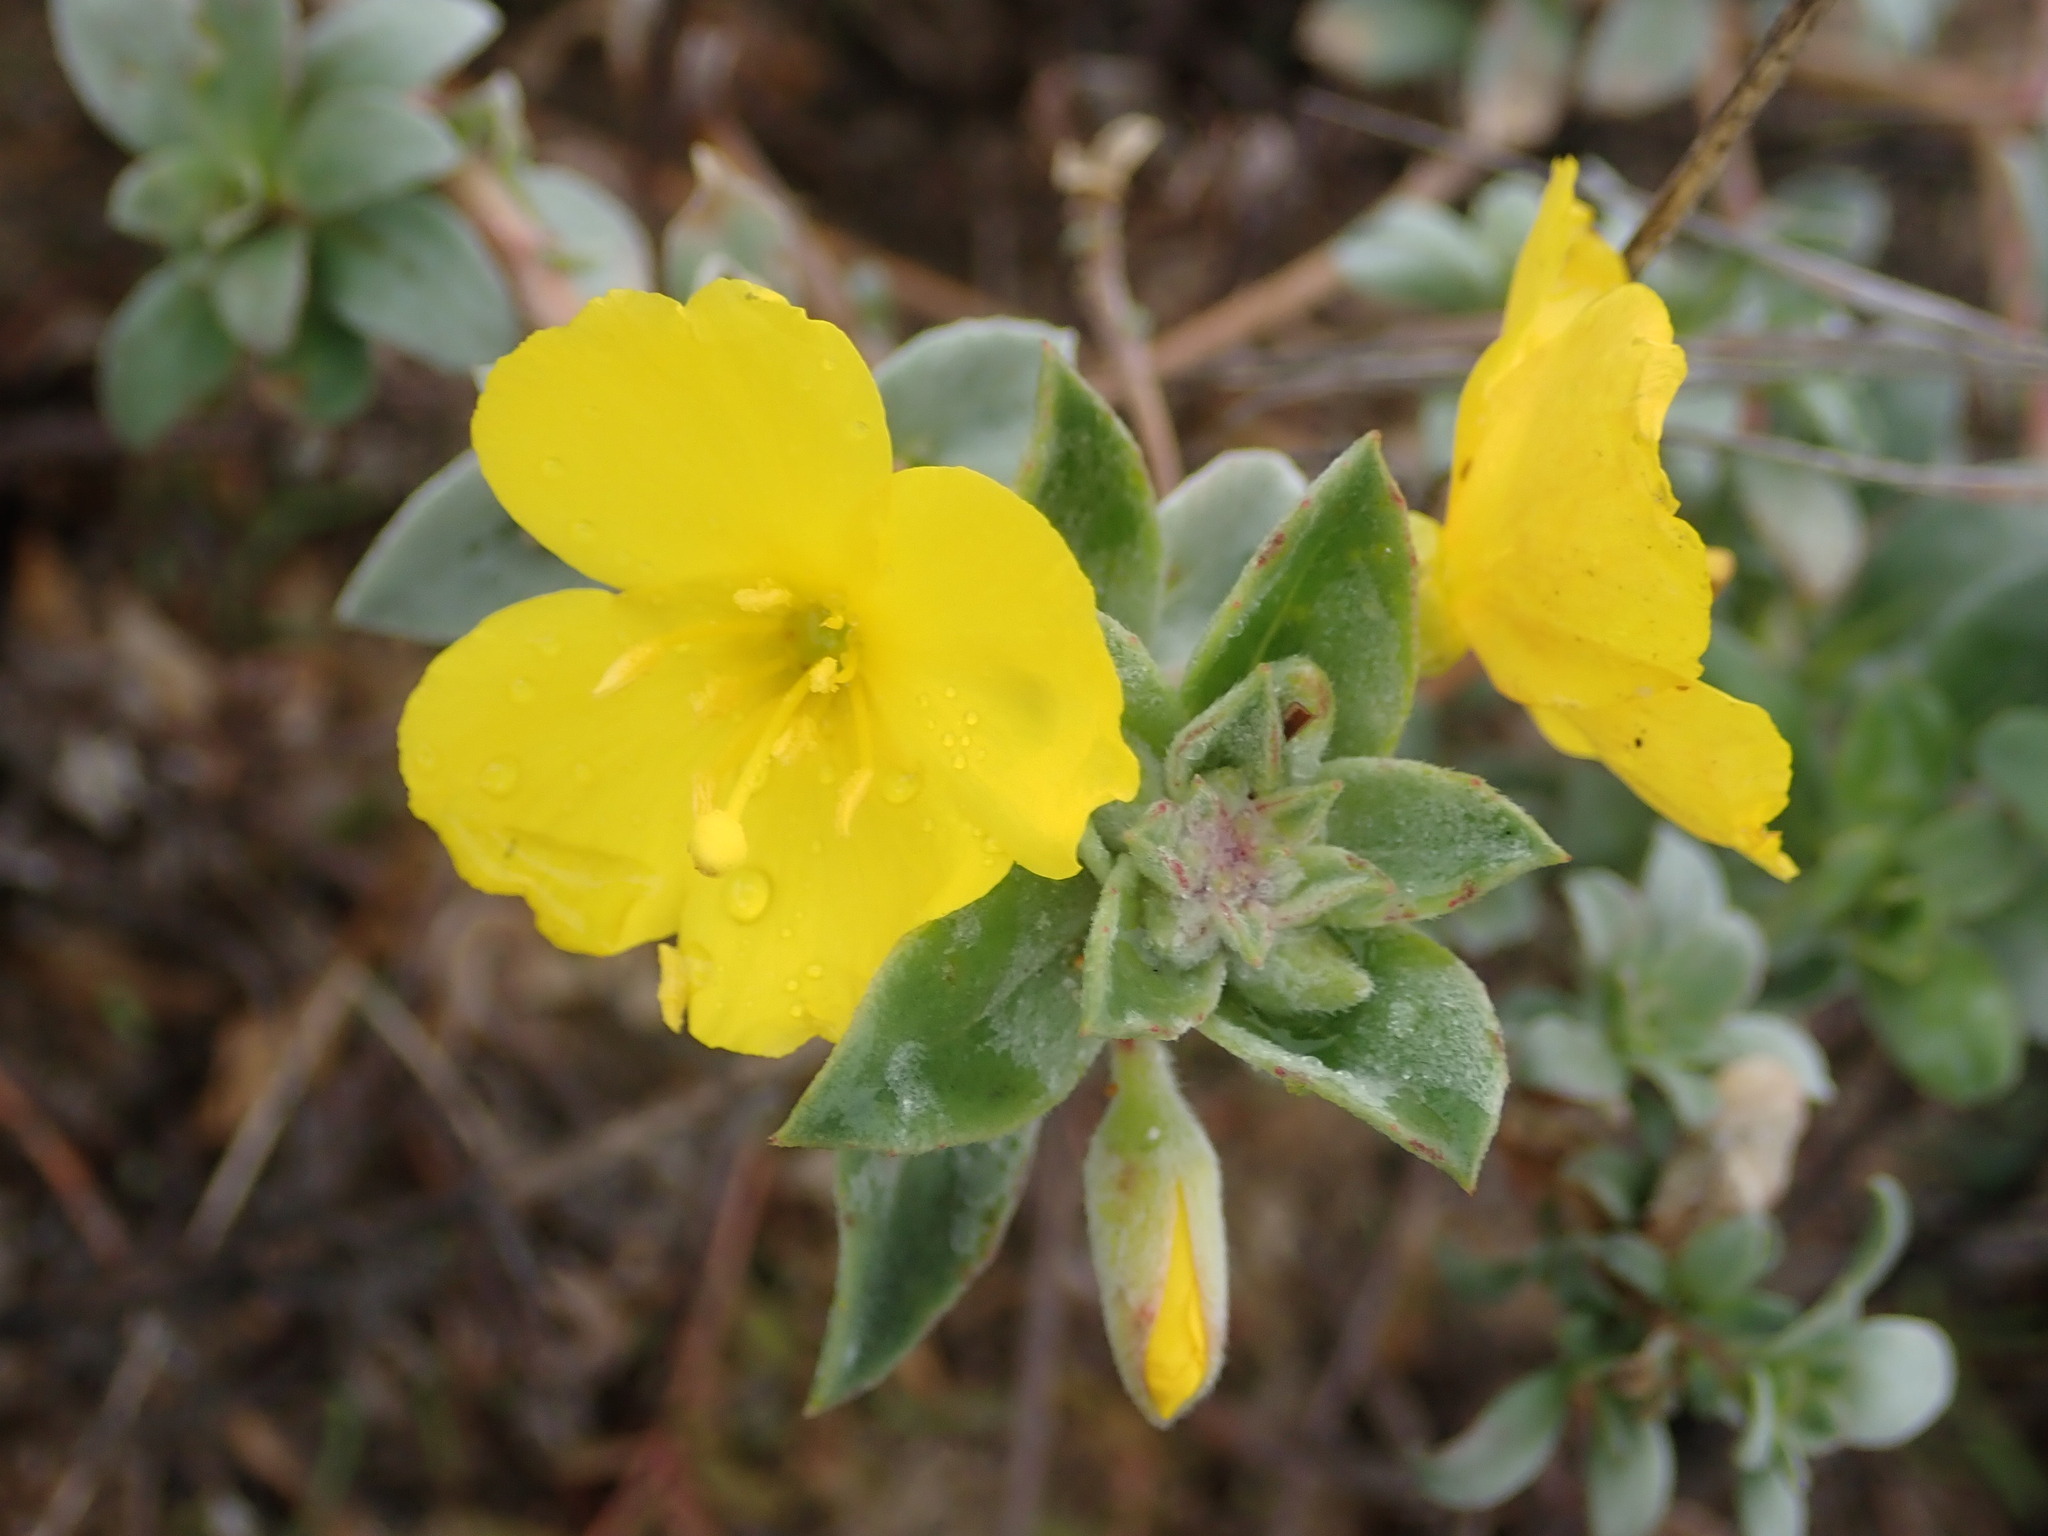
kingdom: Plantae
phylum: Tracheophyta
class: Magnoliopsida
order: Myrtales
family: Onagraceae
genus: Camissoniopsis
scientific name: Camissoniopsis cheiranthifolia
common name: Beach suncup
